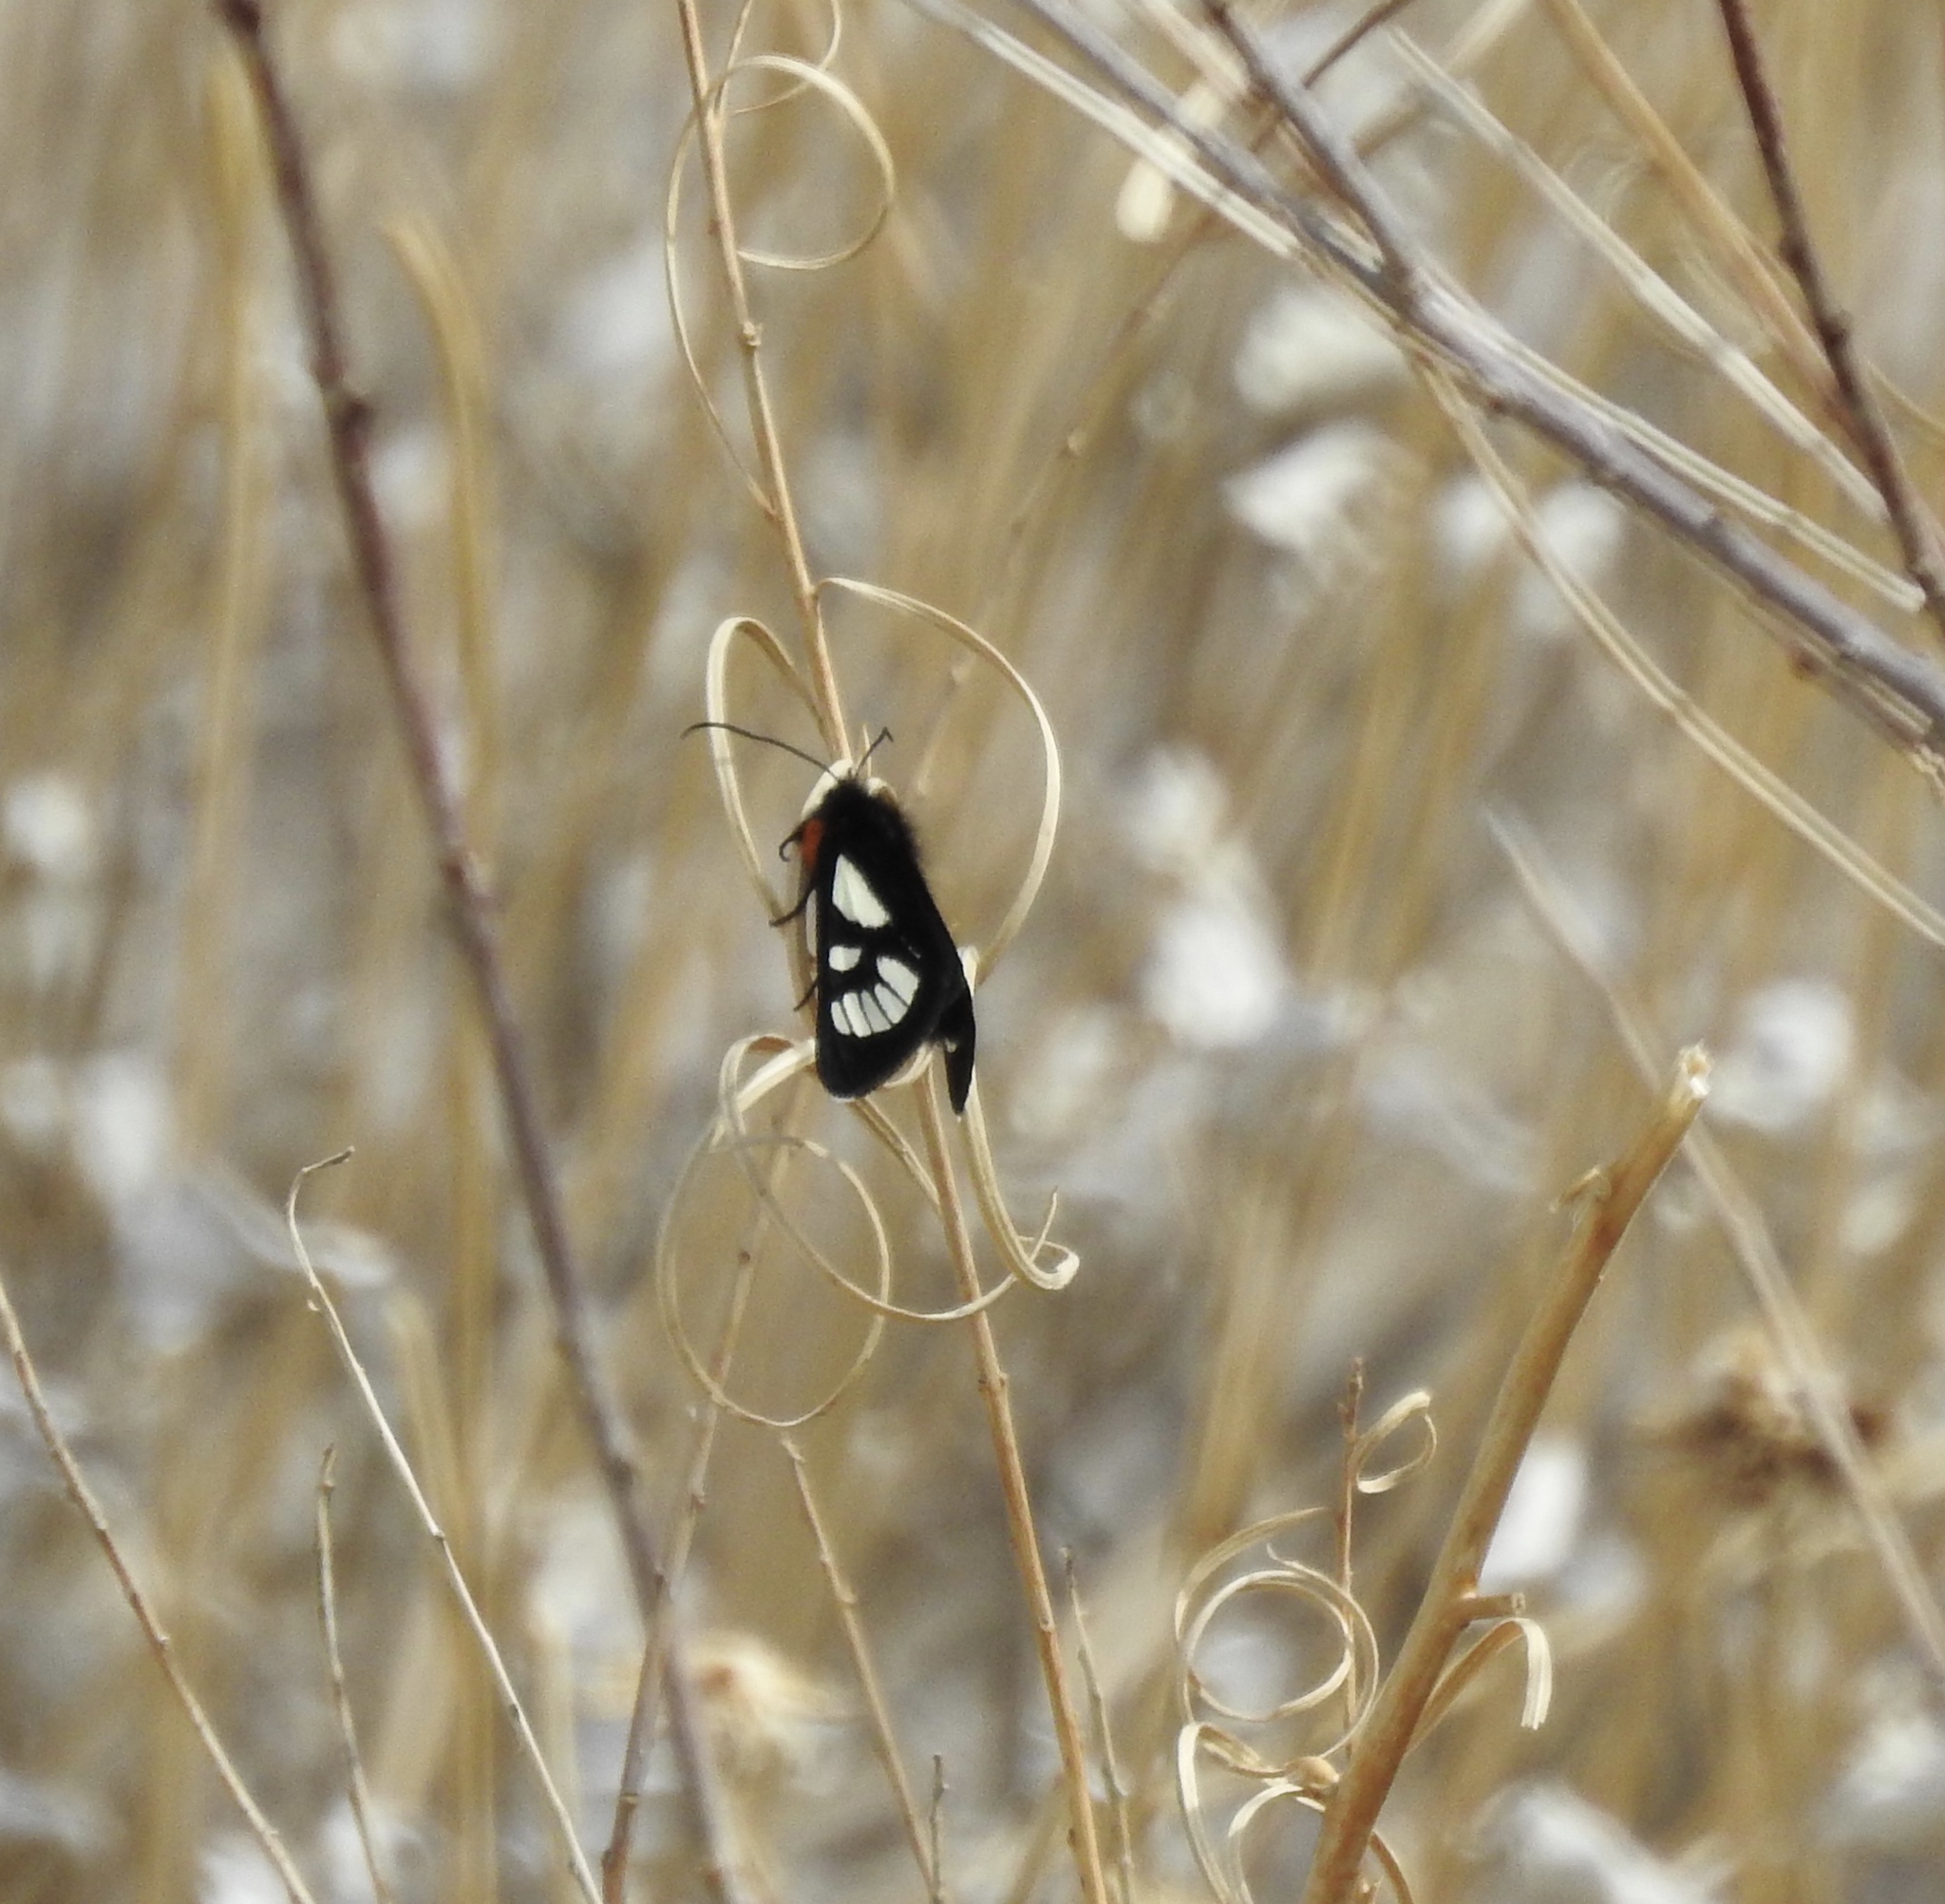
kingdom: Animalia
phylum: Arthropoda
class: Insecta
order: Lepidoptera
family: Noctuidae
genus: Alypia
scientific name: Alypia ridingsii
